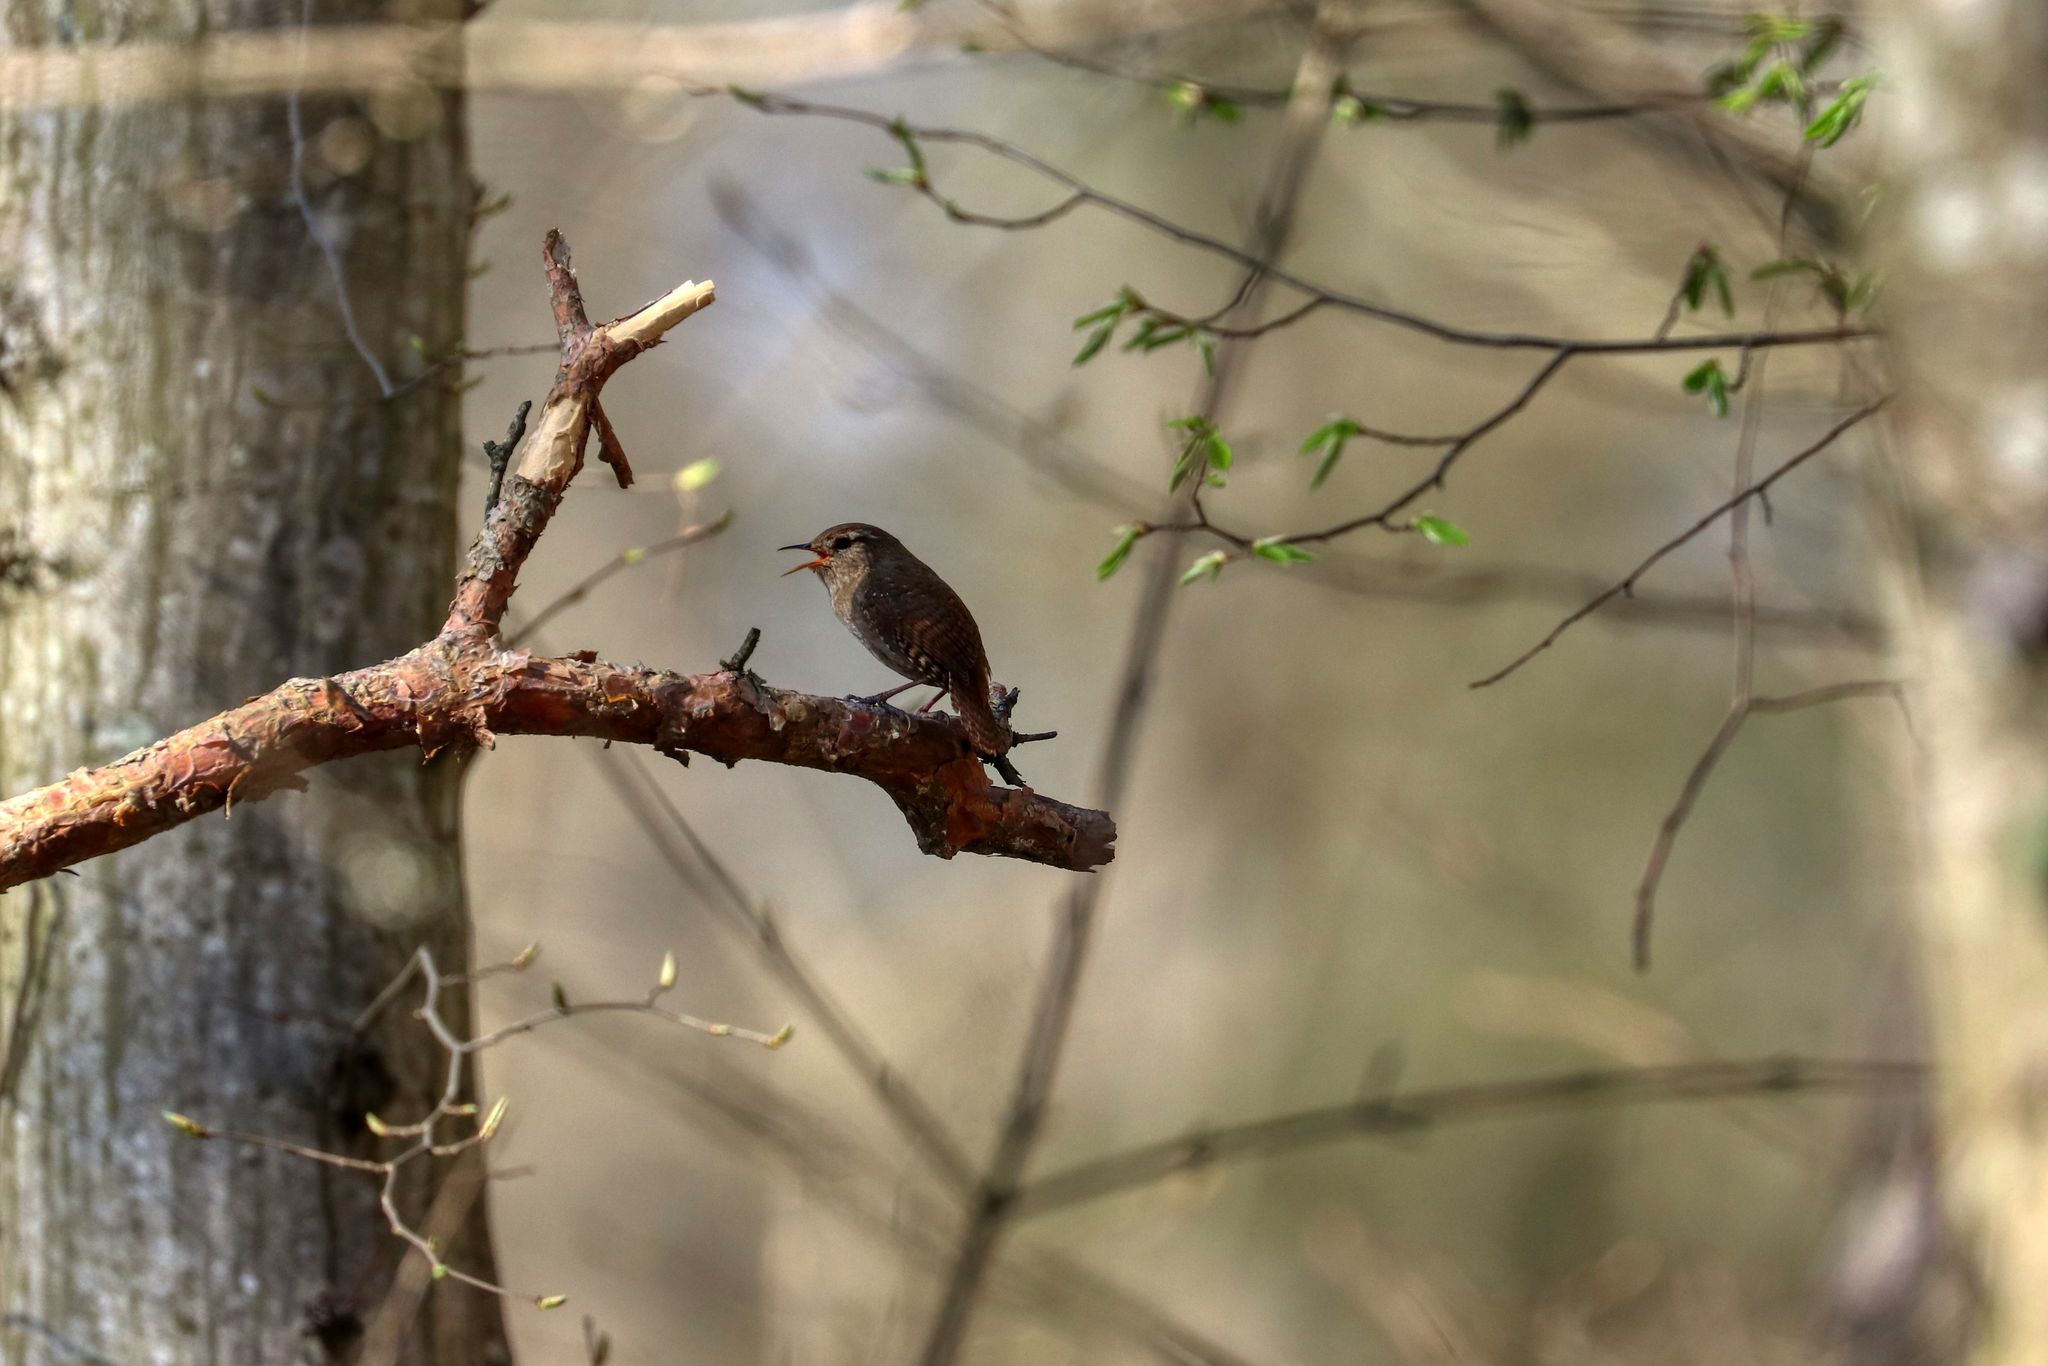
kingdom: Animalia
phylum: Chordata
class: Aves
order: Passeriformes
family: Troglodytidae
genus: Troglodytes
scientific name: Troglodytes troglodytes
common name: Eurasian wren
